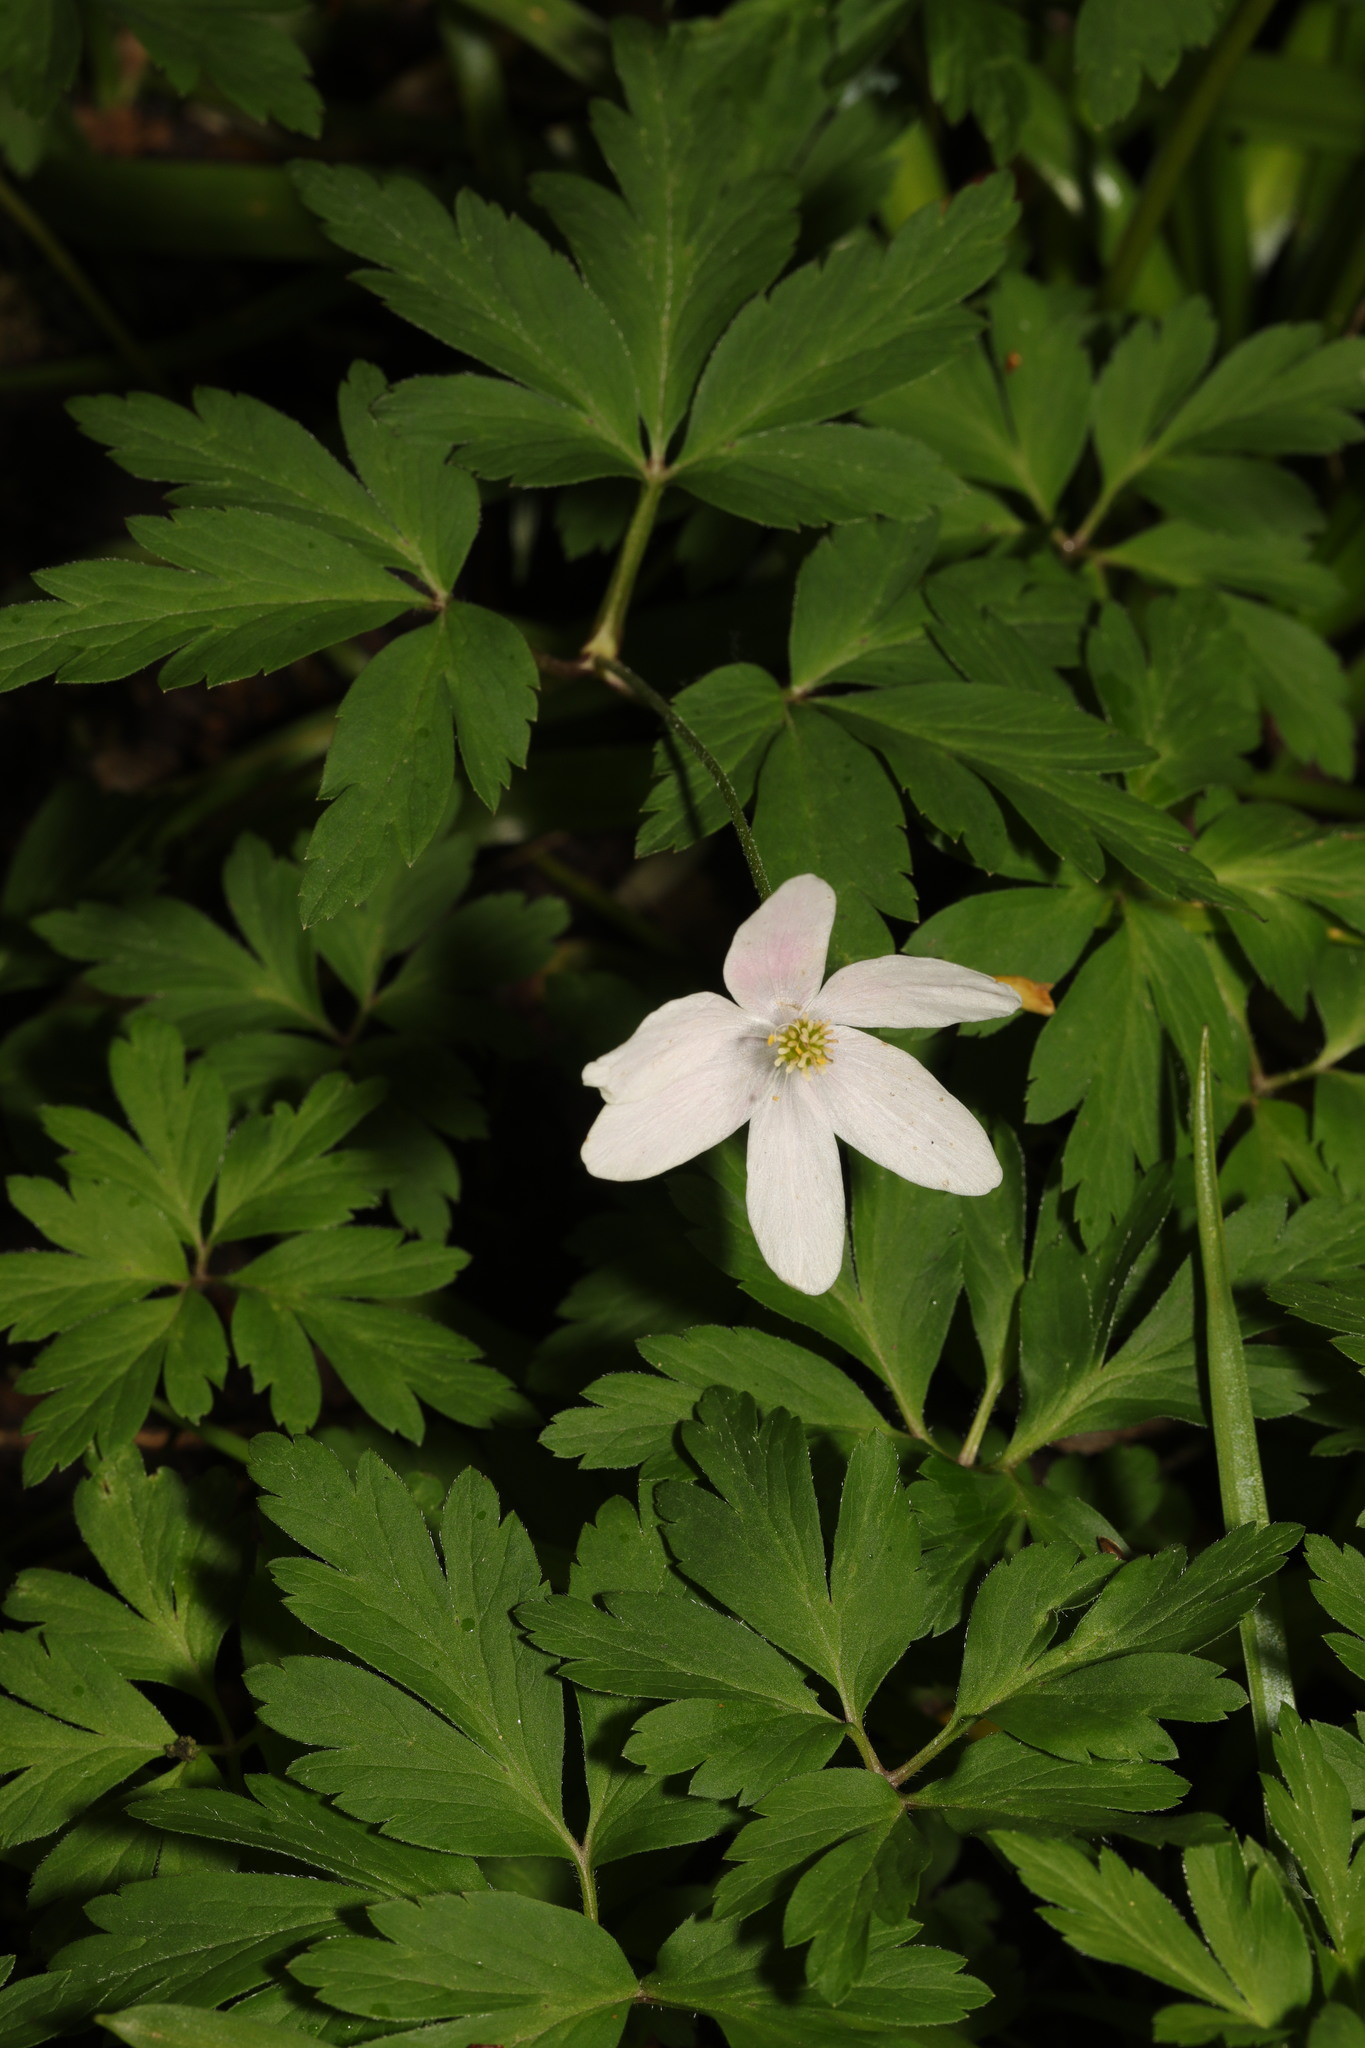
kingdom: Plantae
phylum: Tracheophyta
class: Magnoliopsida
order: Ranunculales
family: Ranunculaceae
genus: Anemone
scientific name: Anemone nemorosa
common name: Wood anemone
